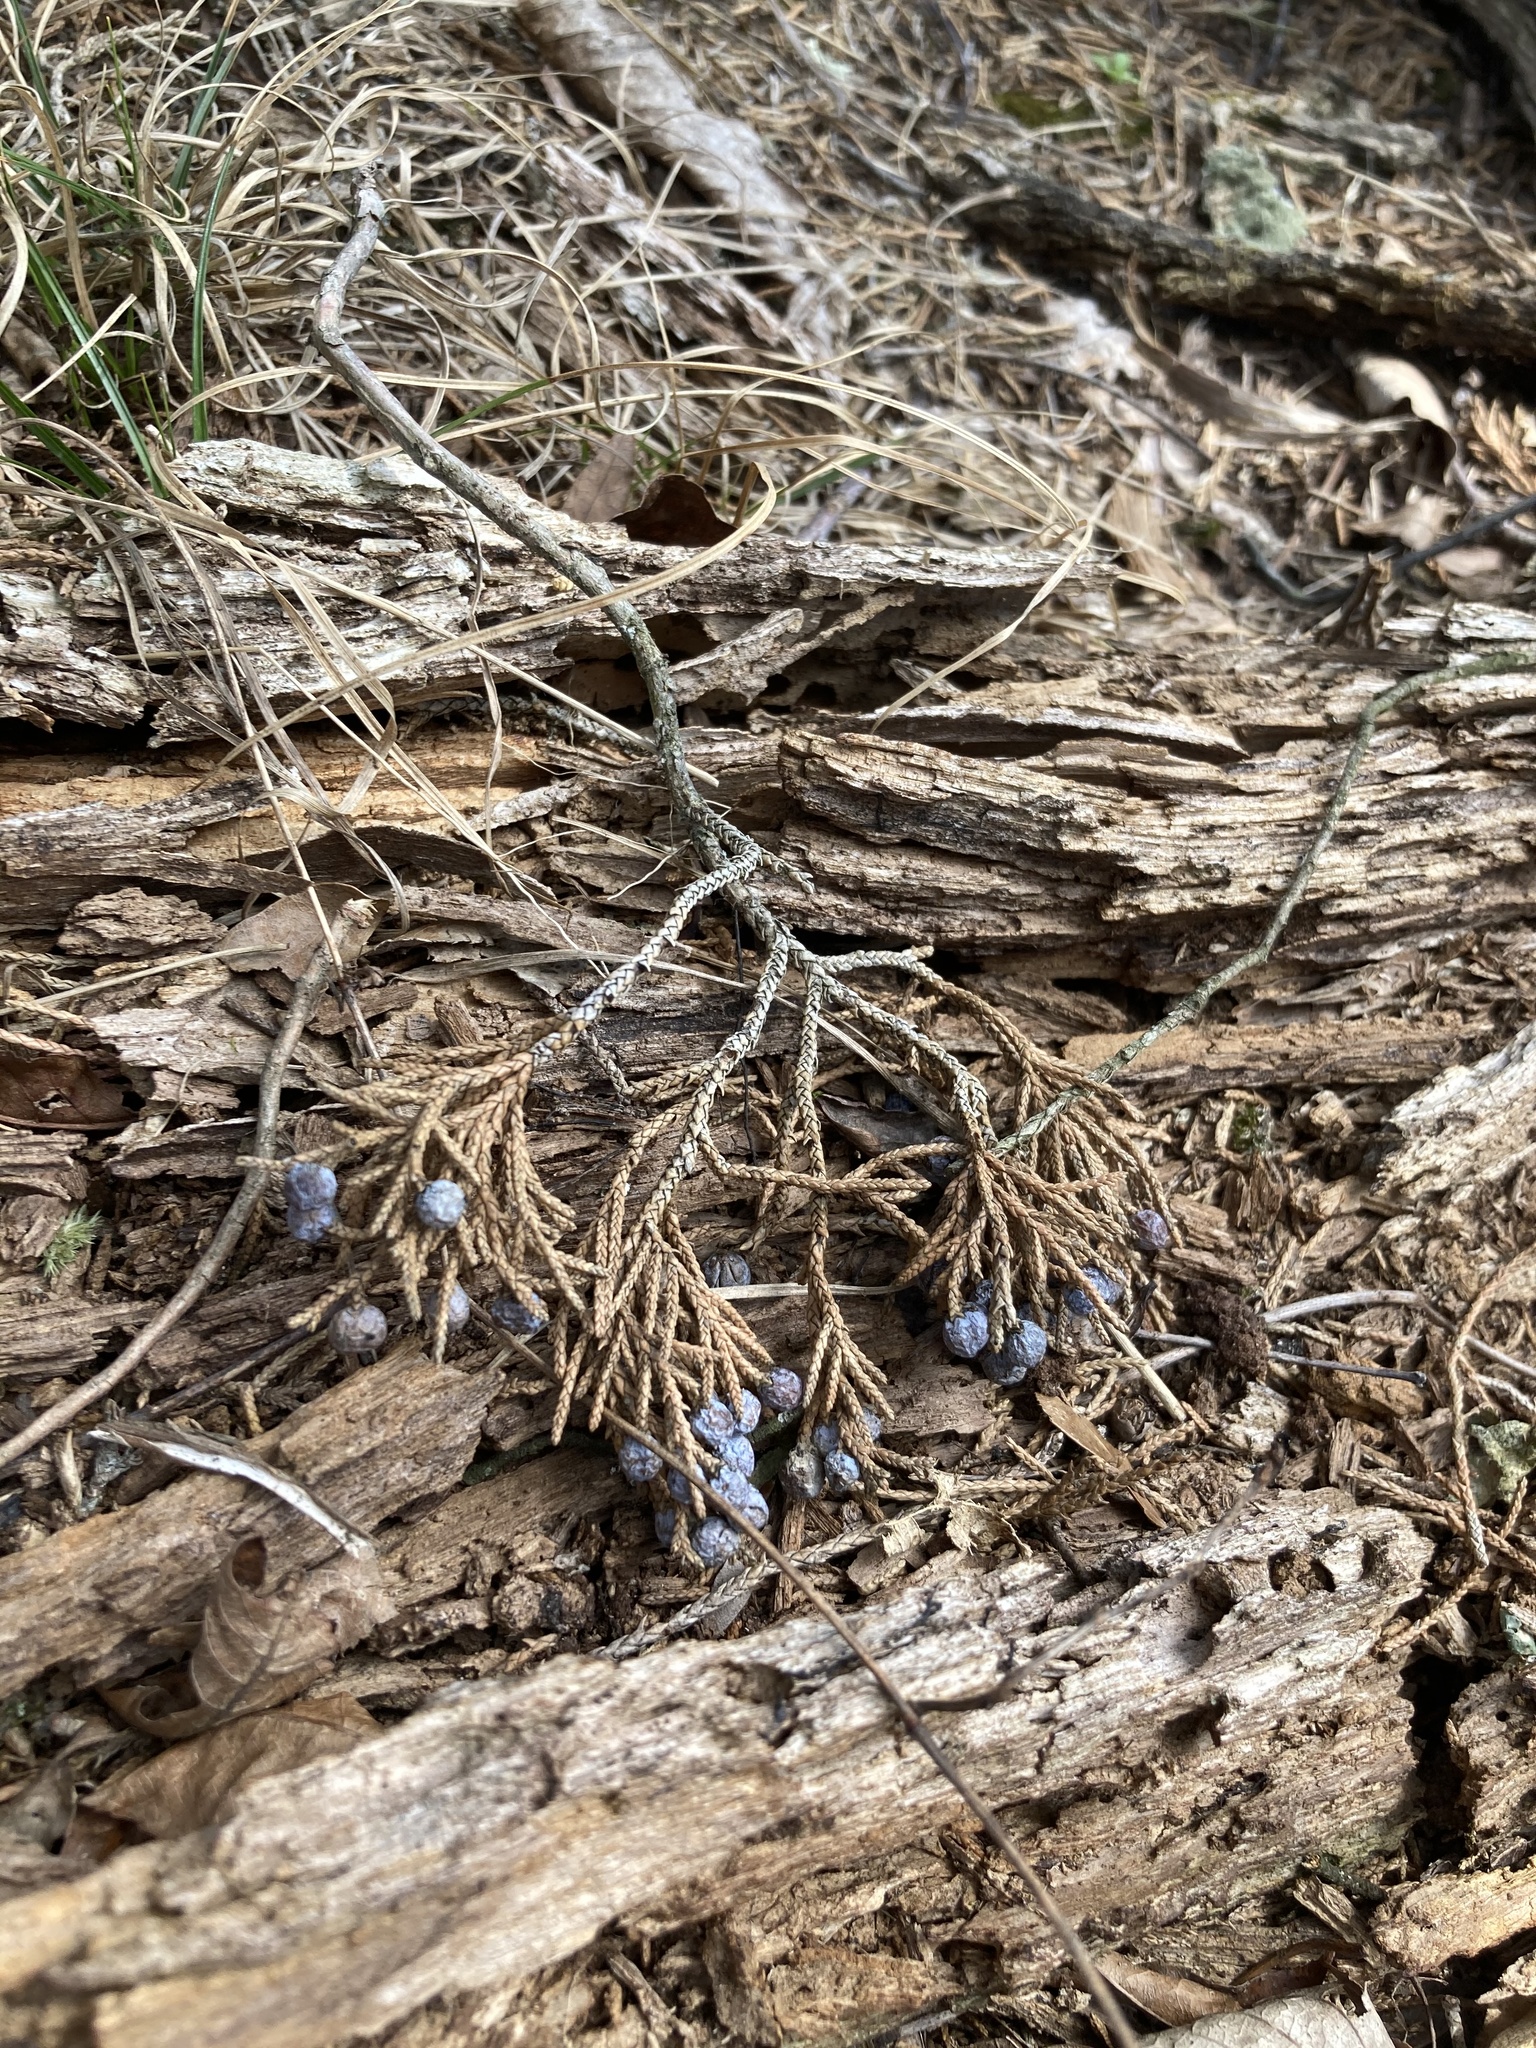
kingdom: Plantae
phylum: Tracheophyta
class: Pinopsida
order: Pinales
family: Cupressaceae
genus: Juniperus
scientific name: Juniperus virginiana
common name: Red juniper
